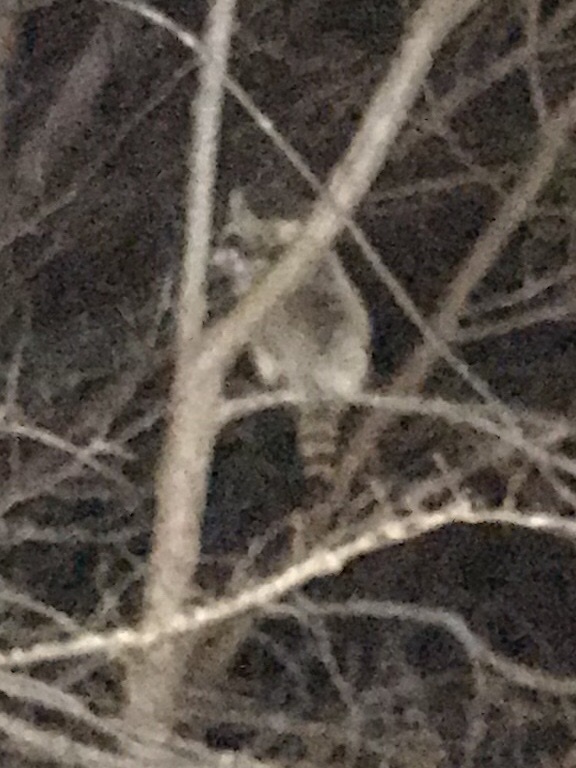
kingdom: Animalia
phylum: Chordata
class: Mammalia
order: Carnivora
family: Procyonidae
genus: Procyon
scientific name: Procyon lotor
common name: Raccoon
